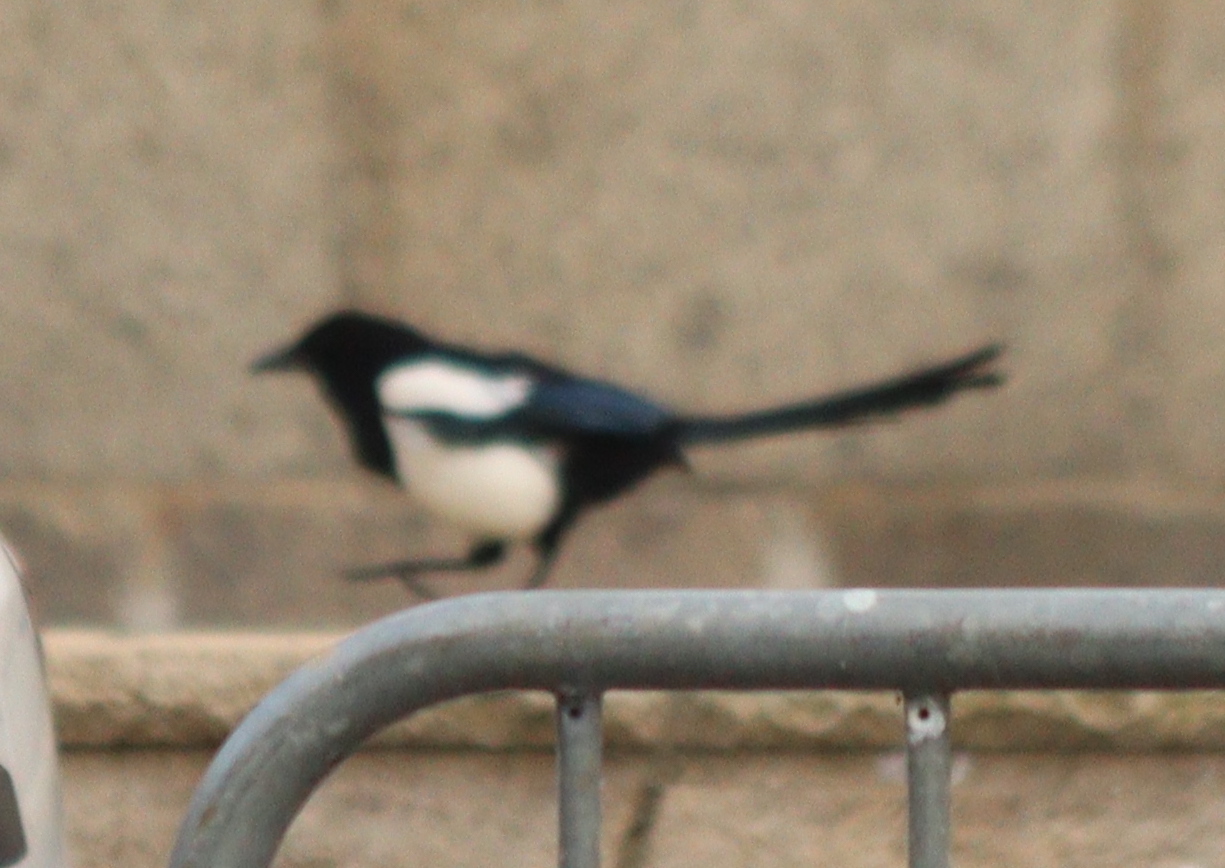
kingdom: Animalia
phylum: Chordata
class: Aves
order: Passeriformes
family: Corvidae
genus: Pica
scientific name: Pica pica
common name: Eurasian magpie
